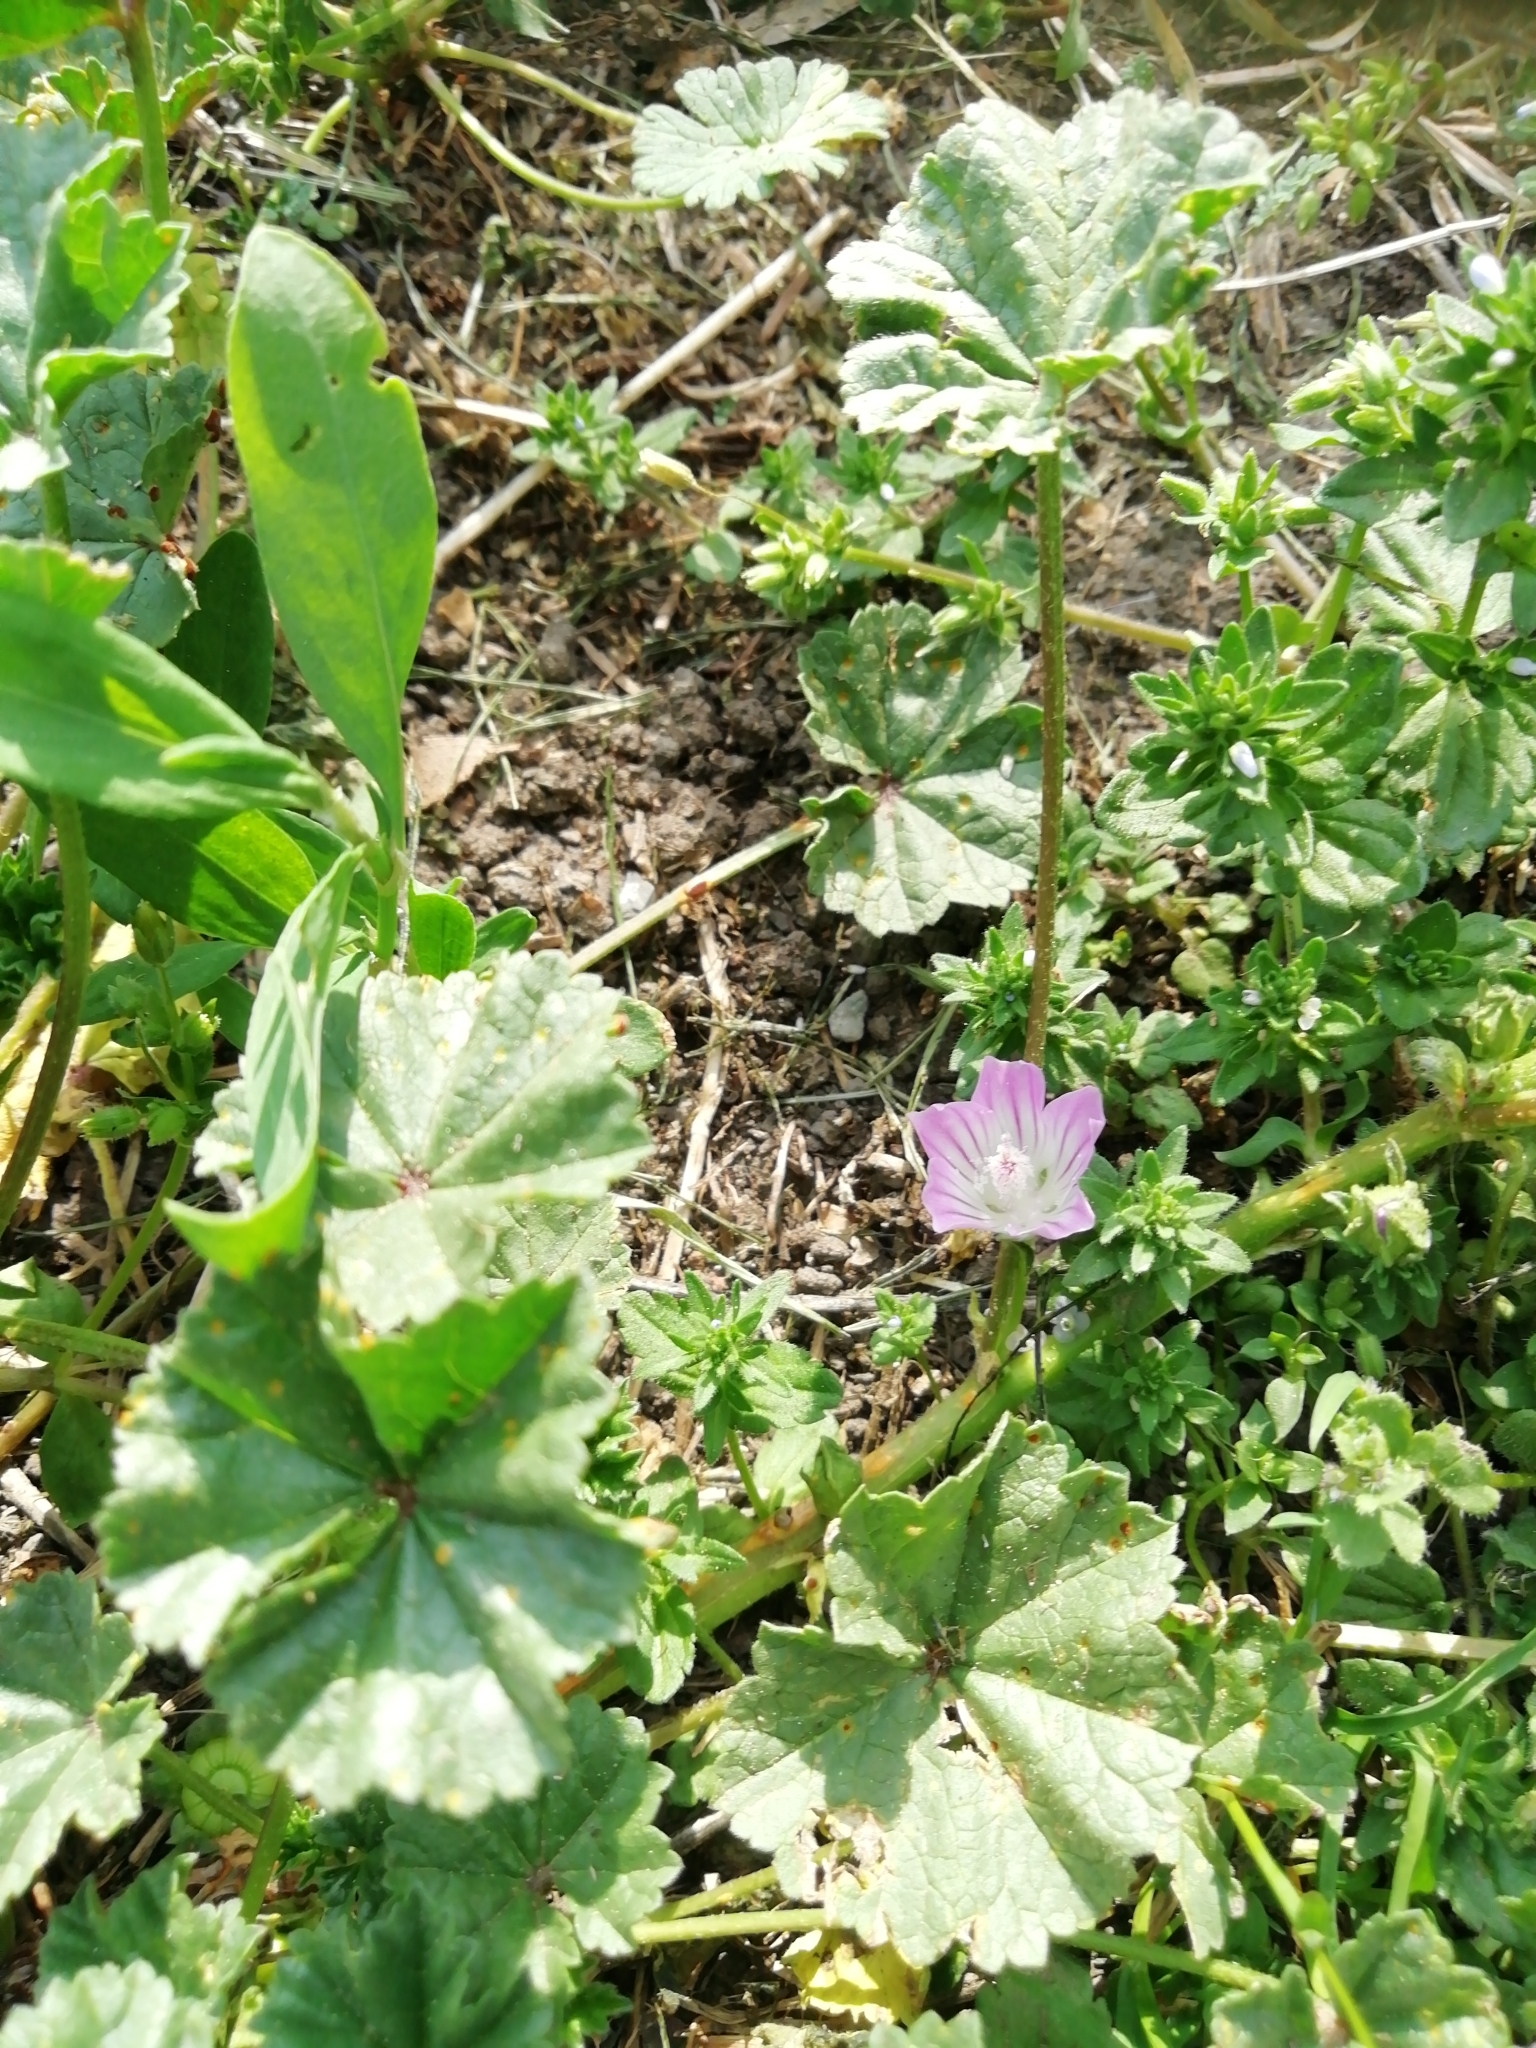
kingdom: Plantae
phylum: Tracheophyta
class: Magnoliopsida
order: Malvales
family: Malvaceae
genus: Malva
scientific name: Malva neglecta
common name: Common mallow
